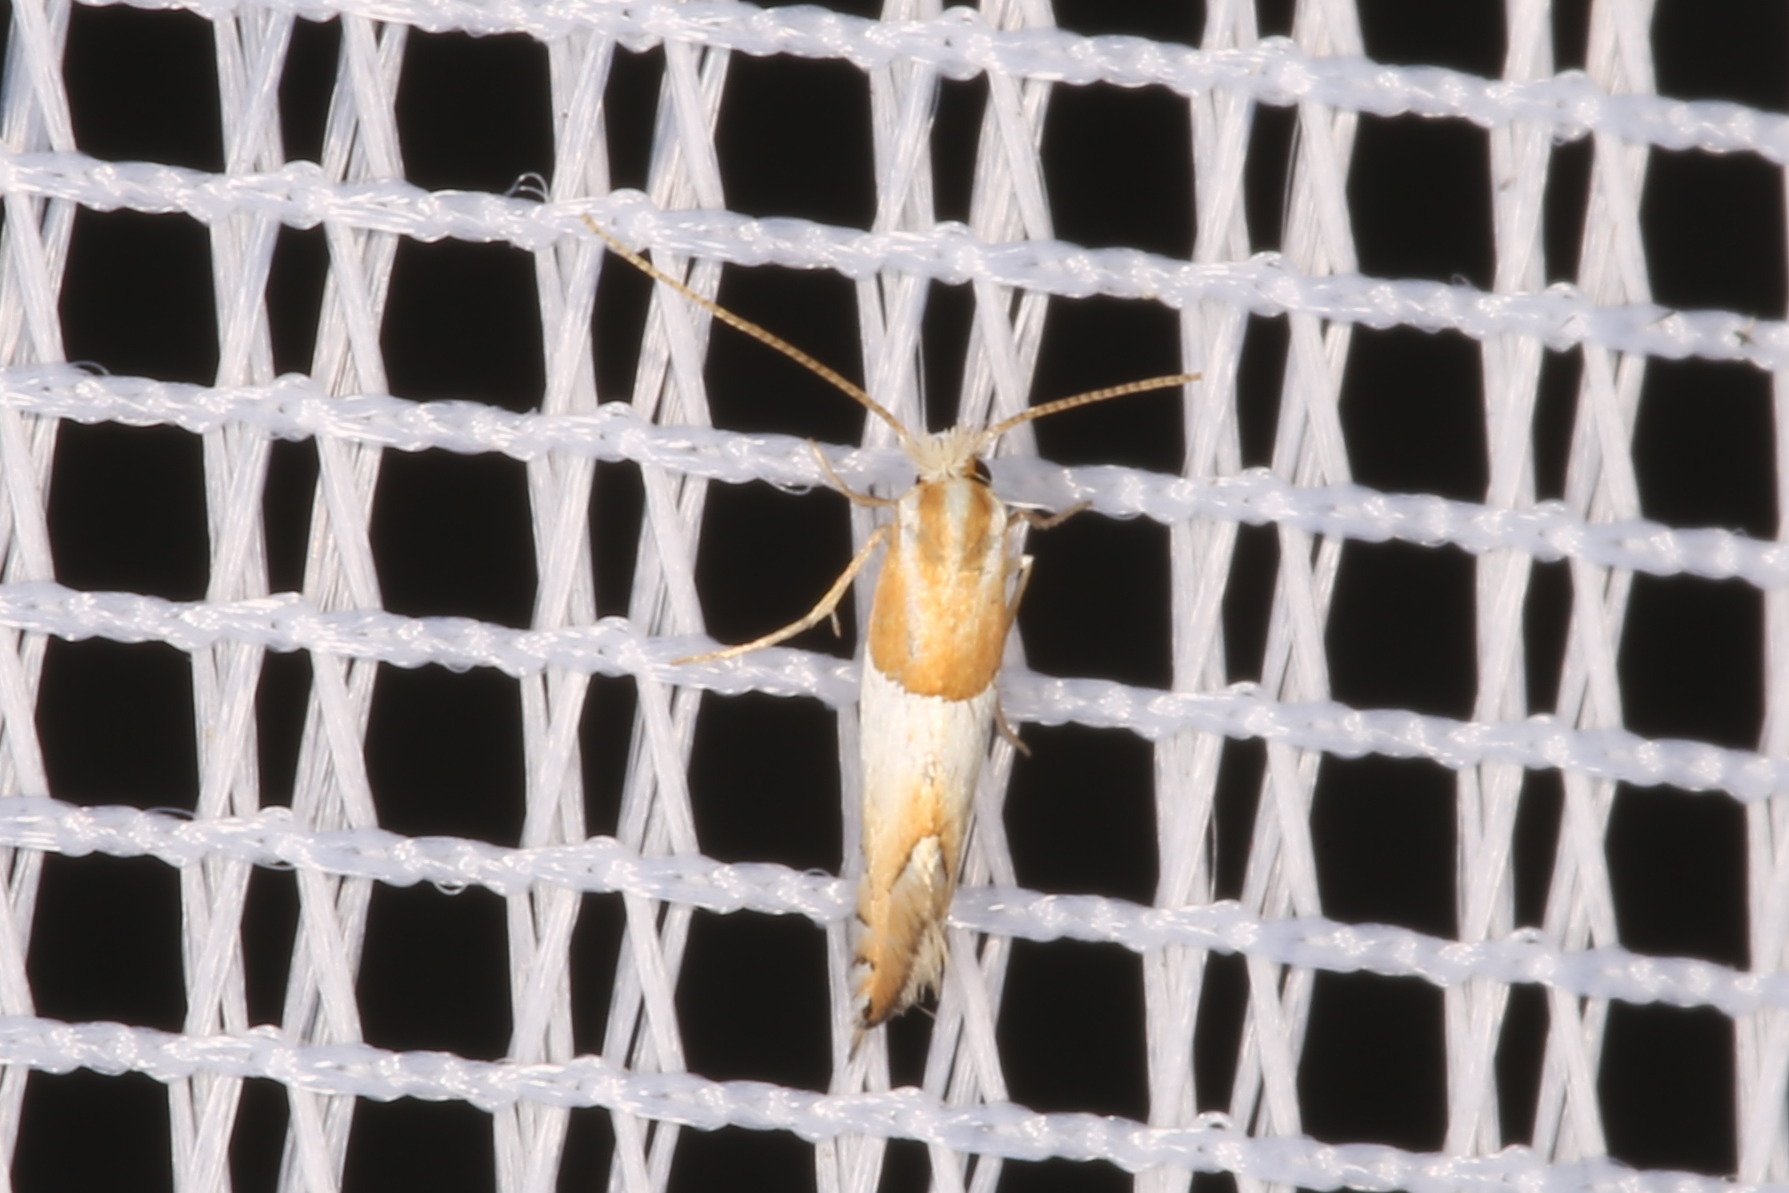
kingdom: Animalia
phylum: Arthropoda
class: Insecta
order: Lepidoptera
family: Gracillariidae
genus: Phyllonorycter
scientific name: Phyllonorycter roboris
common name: Gold-bent midget
